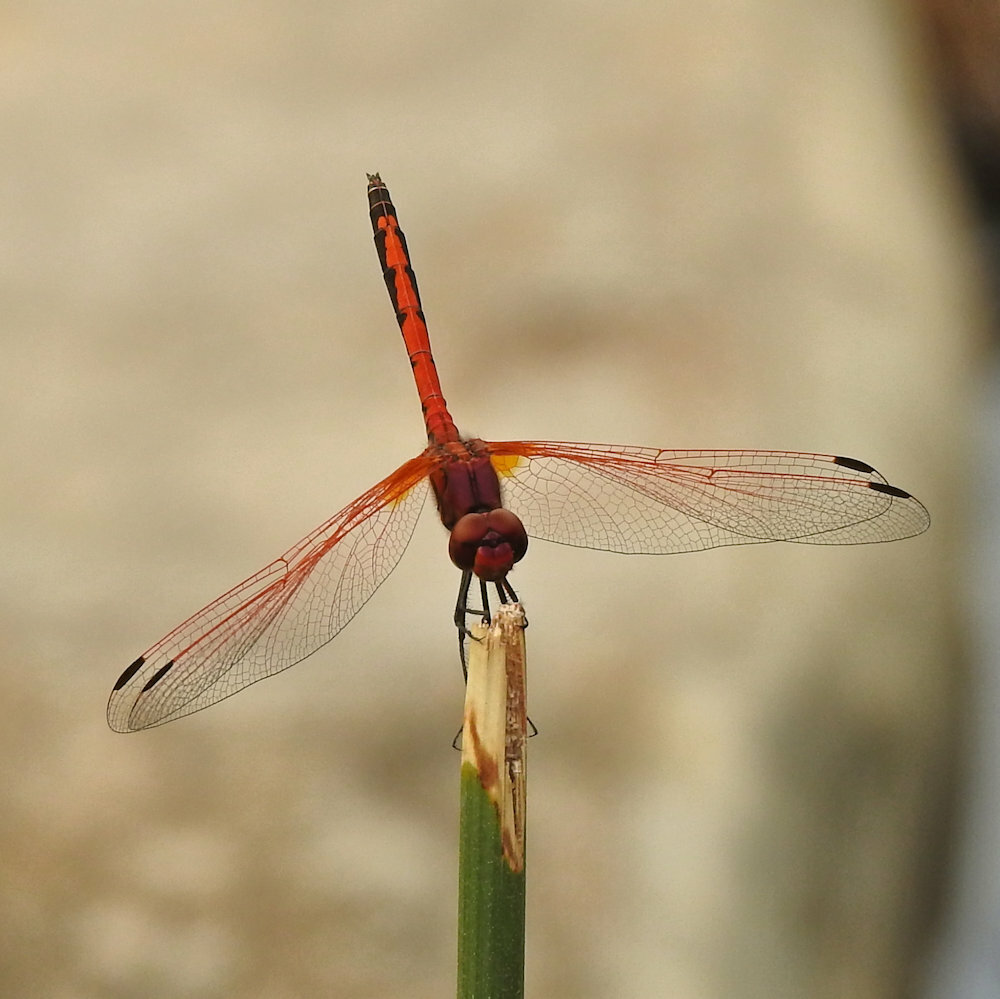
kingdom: Animalia
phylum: Arthropoda
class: Insecta
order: Odonata
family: Libellulidae
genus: Trithemis
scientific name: Trithemis arteriosa
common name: Red-veined dropwing
